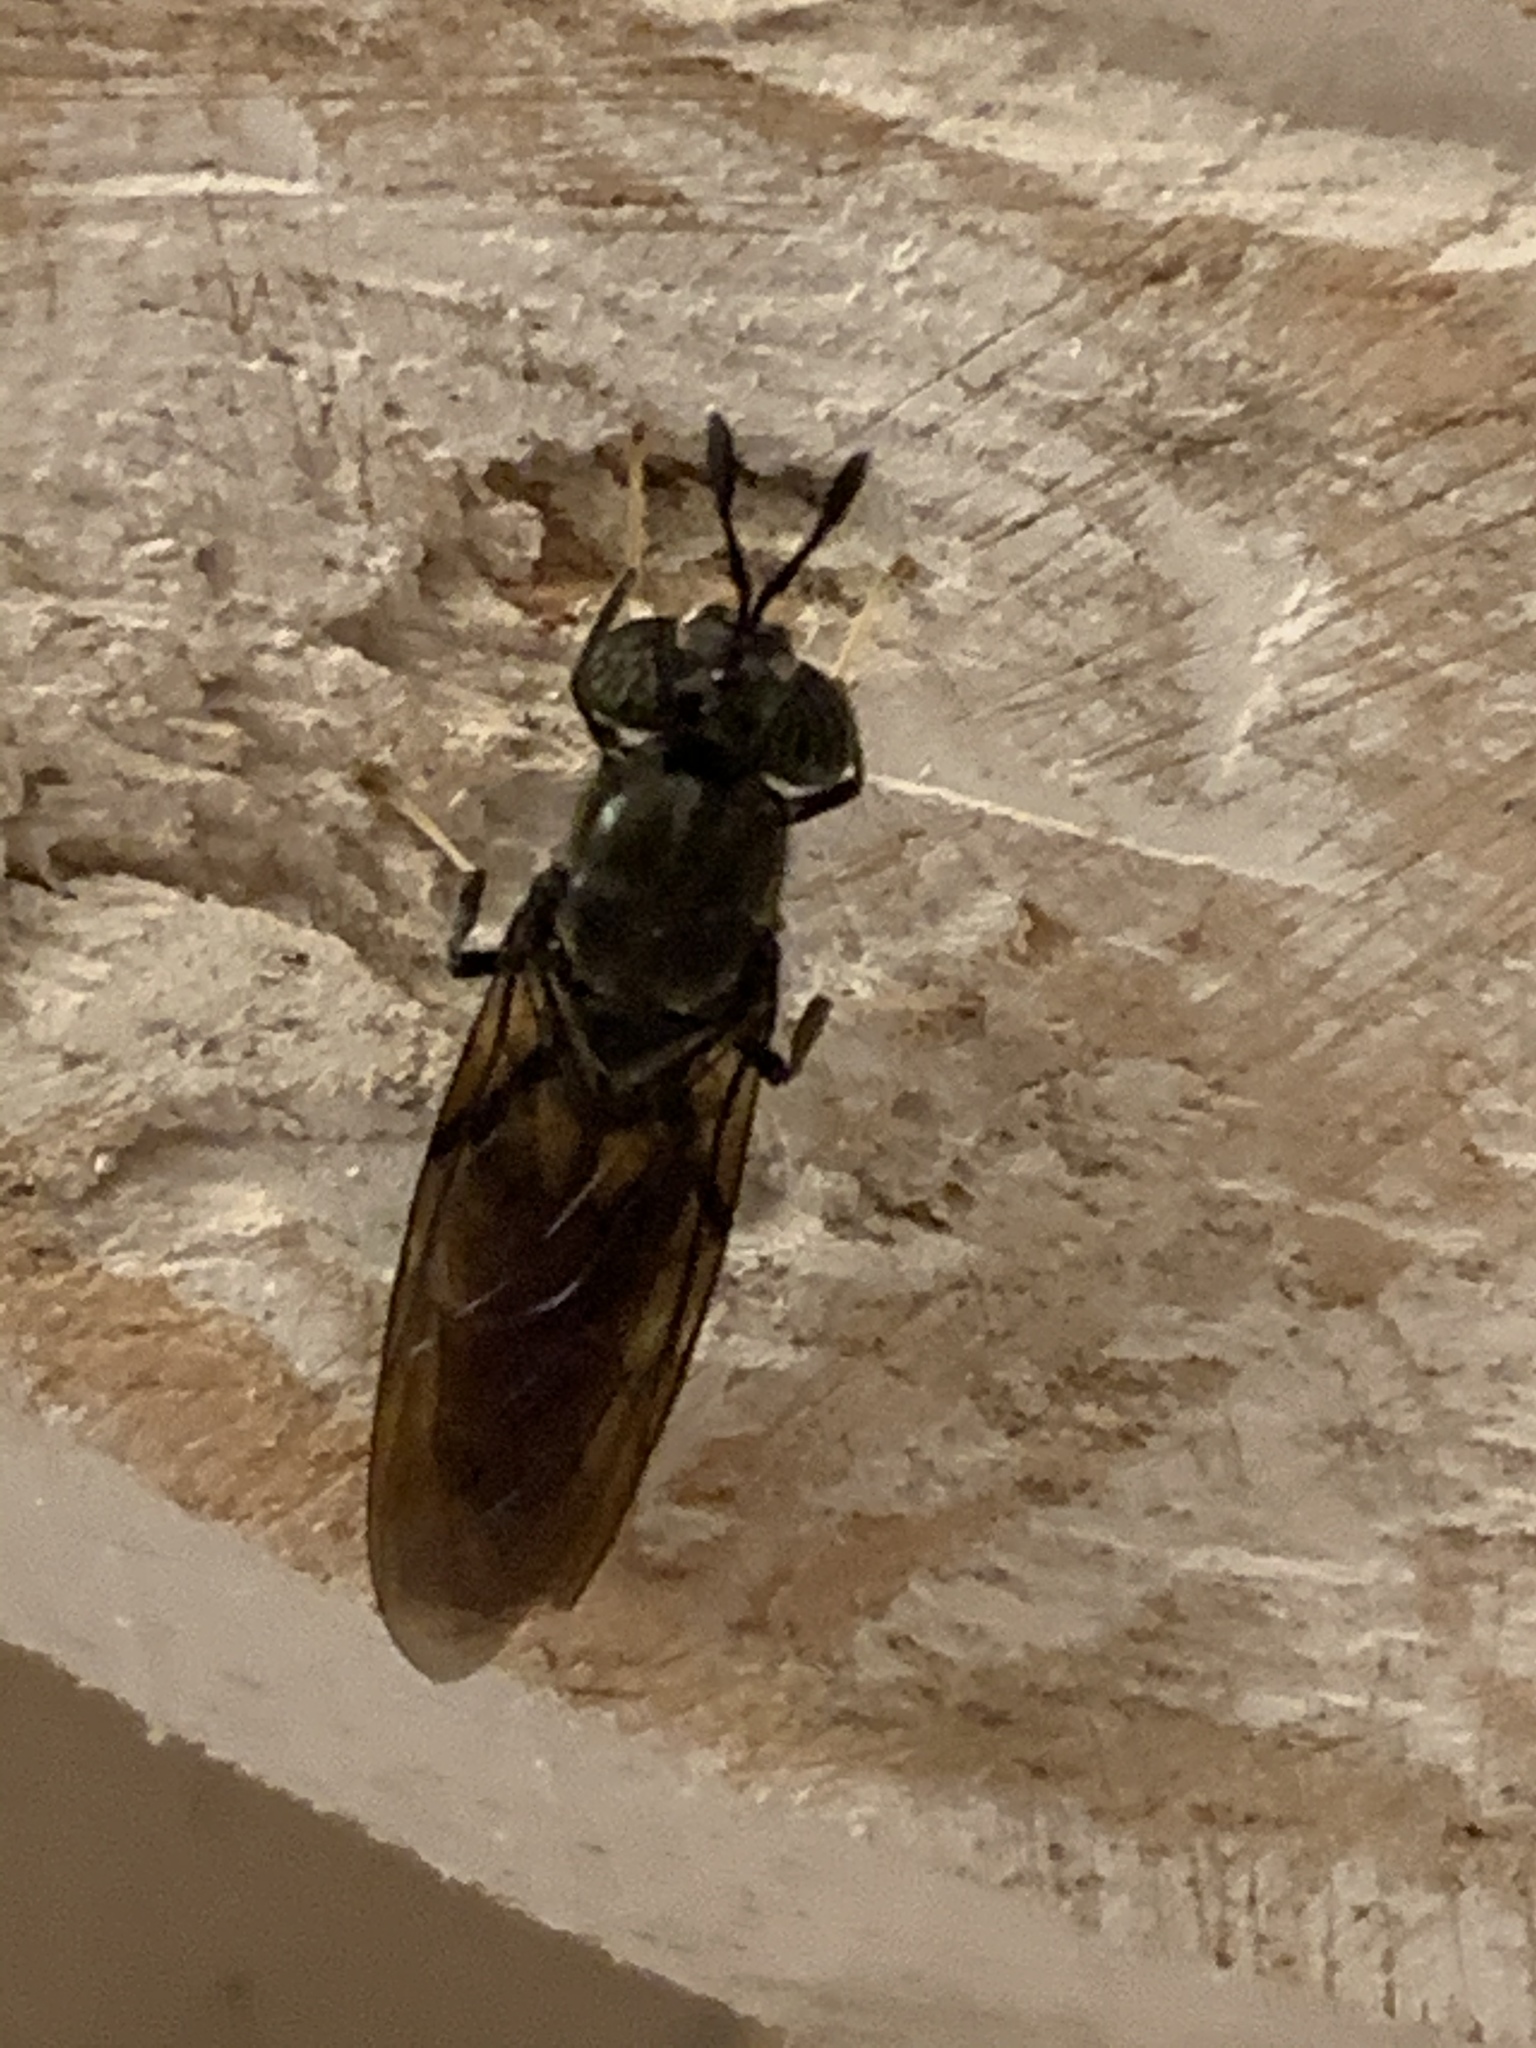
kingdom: Animalia
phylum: Arthropoda
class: Insecta
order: Diptera
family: Stratiomyidae
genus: Hermetia
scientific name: Hermetia illucens
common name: Black soldier fly
